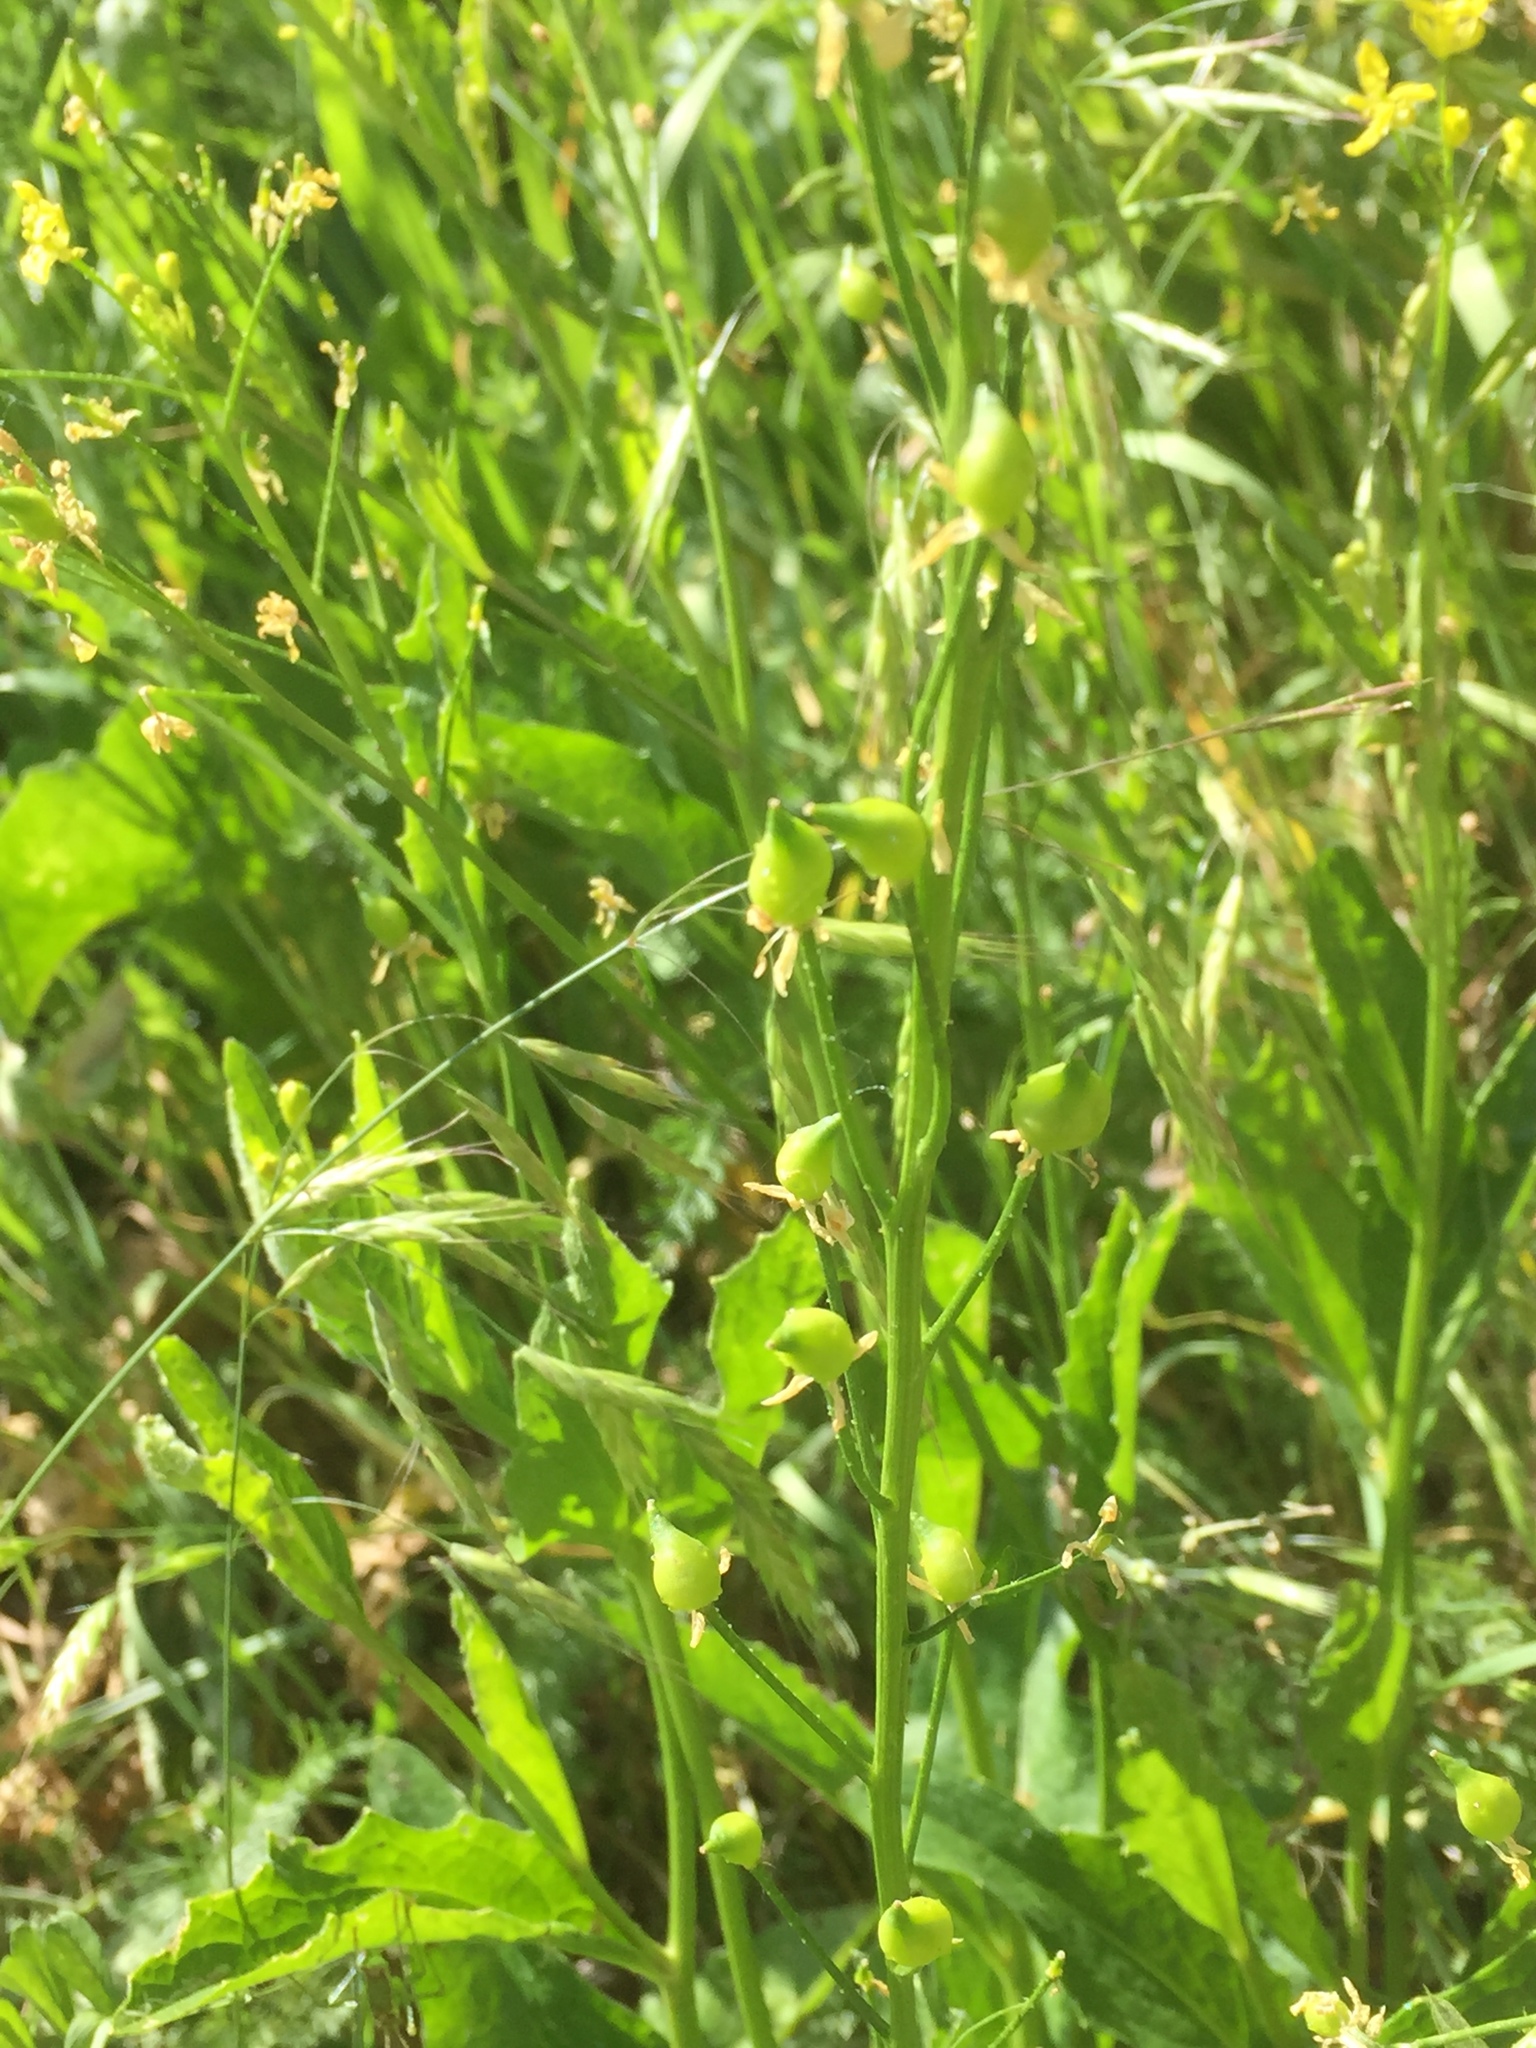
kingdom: Plantae
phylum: Tracheophyta
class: Magnoliopsida
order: Brassicales
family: Brassicaceae
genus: Bunias
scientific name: Bunias orientalis
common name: Warty-cabbage
